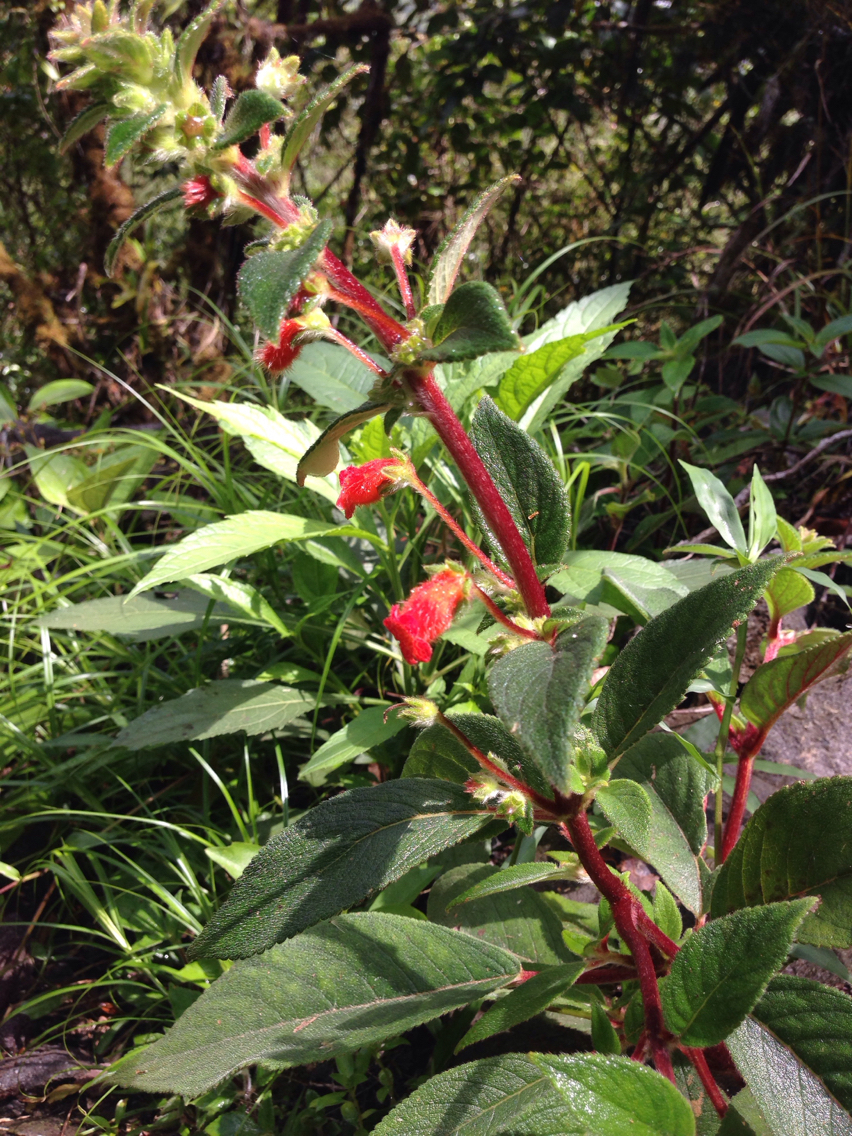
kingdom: Plantae
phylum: Tracheophyta
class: Magnoliopsida
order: Lamiales
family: Gesneriaceae
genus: Kohleria
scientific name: Kohleria spicata
